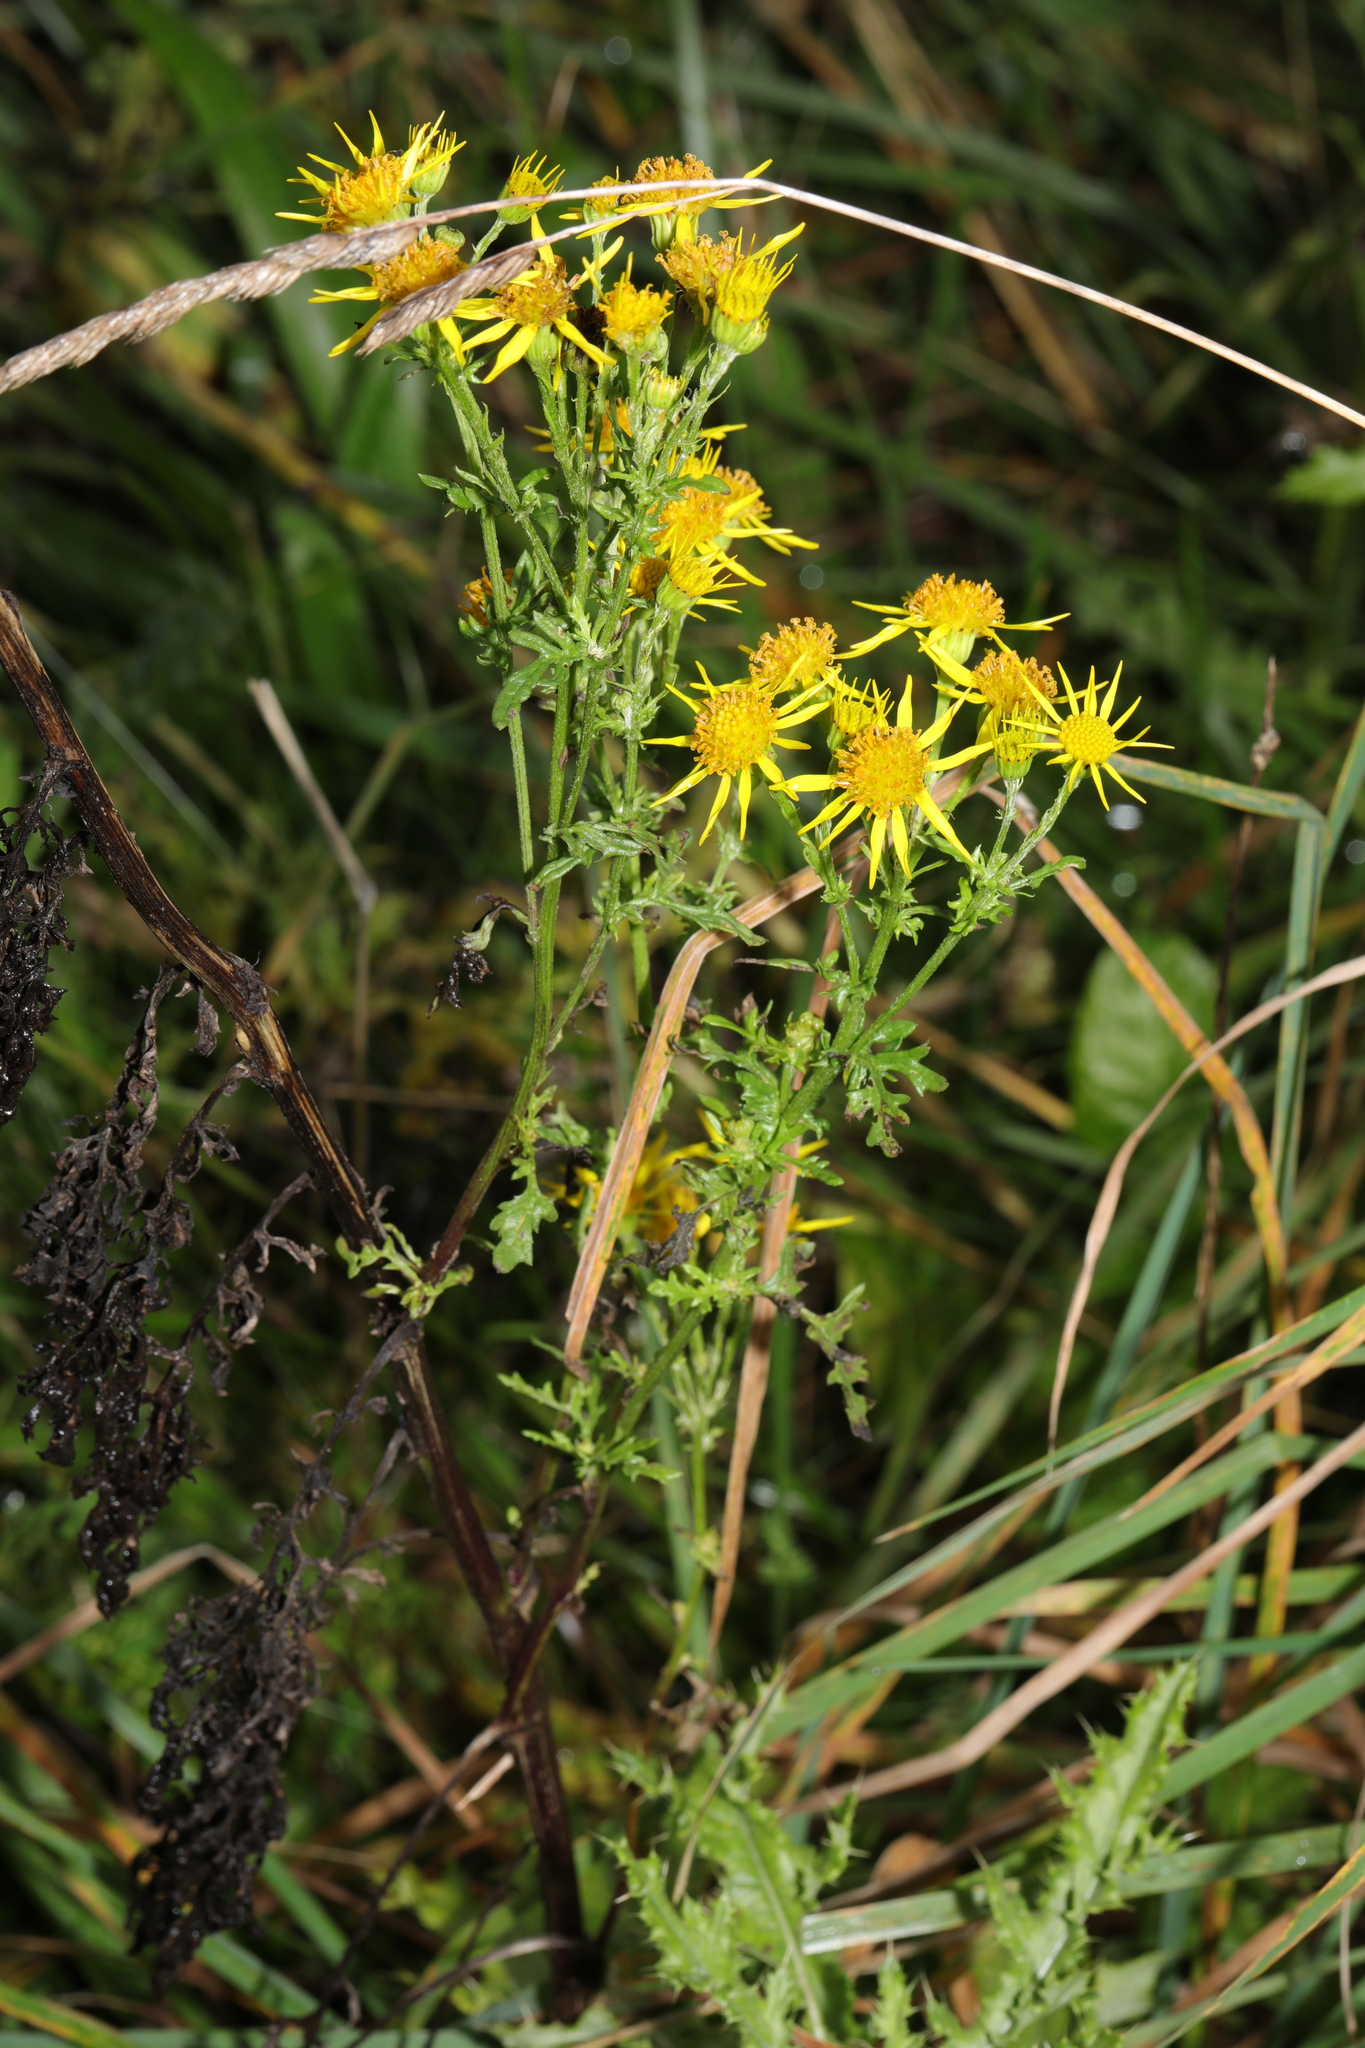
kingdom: Plantae
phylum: Tracheophyta
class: Magnoliopsida
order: Asterales
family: Asteraceae
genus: Jacobaea
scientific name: Jacobaea vulgaris
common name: Stinking willie
